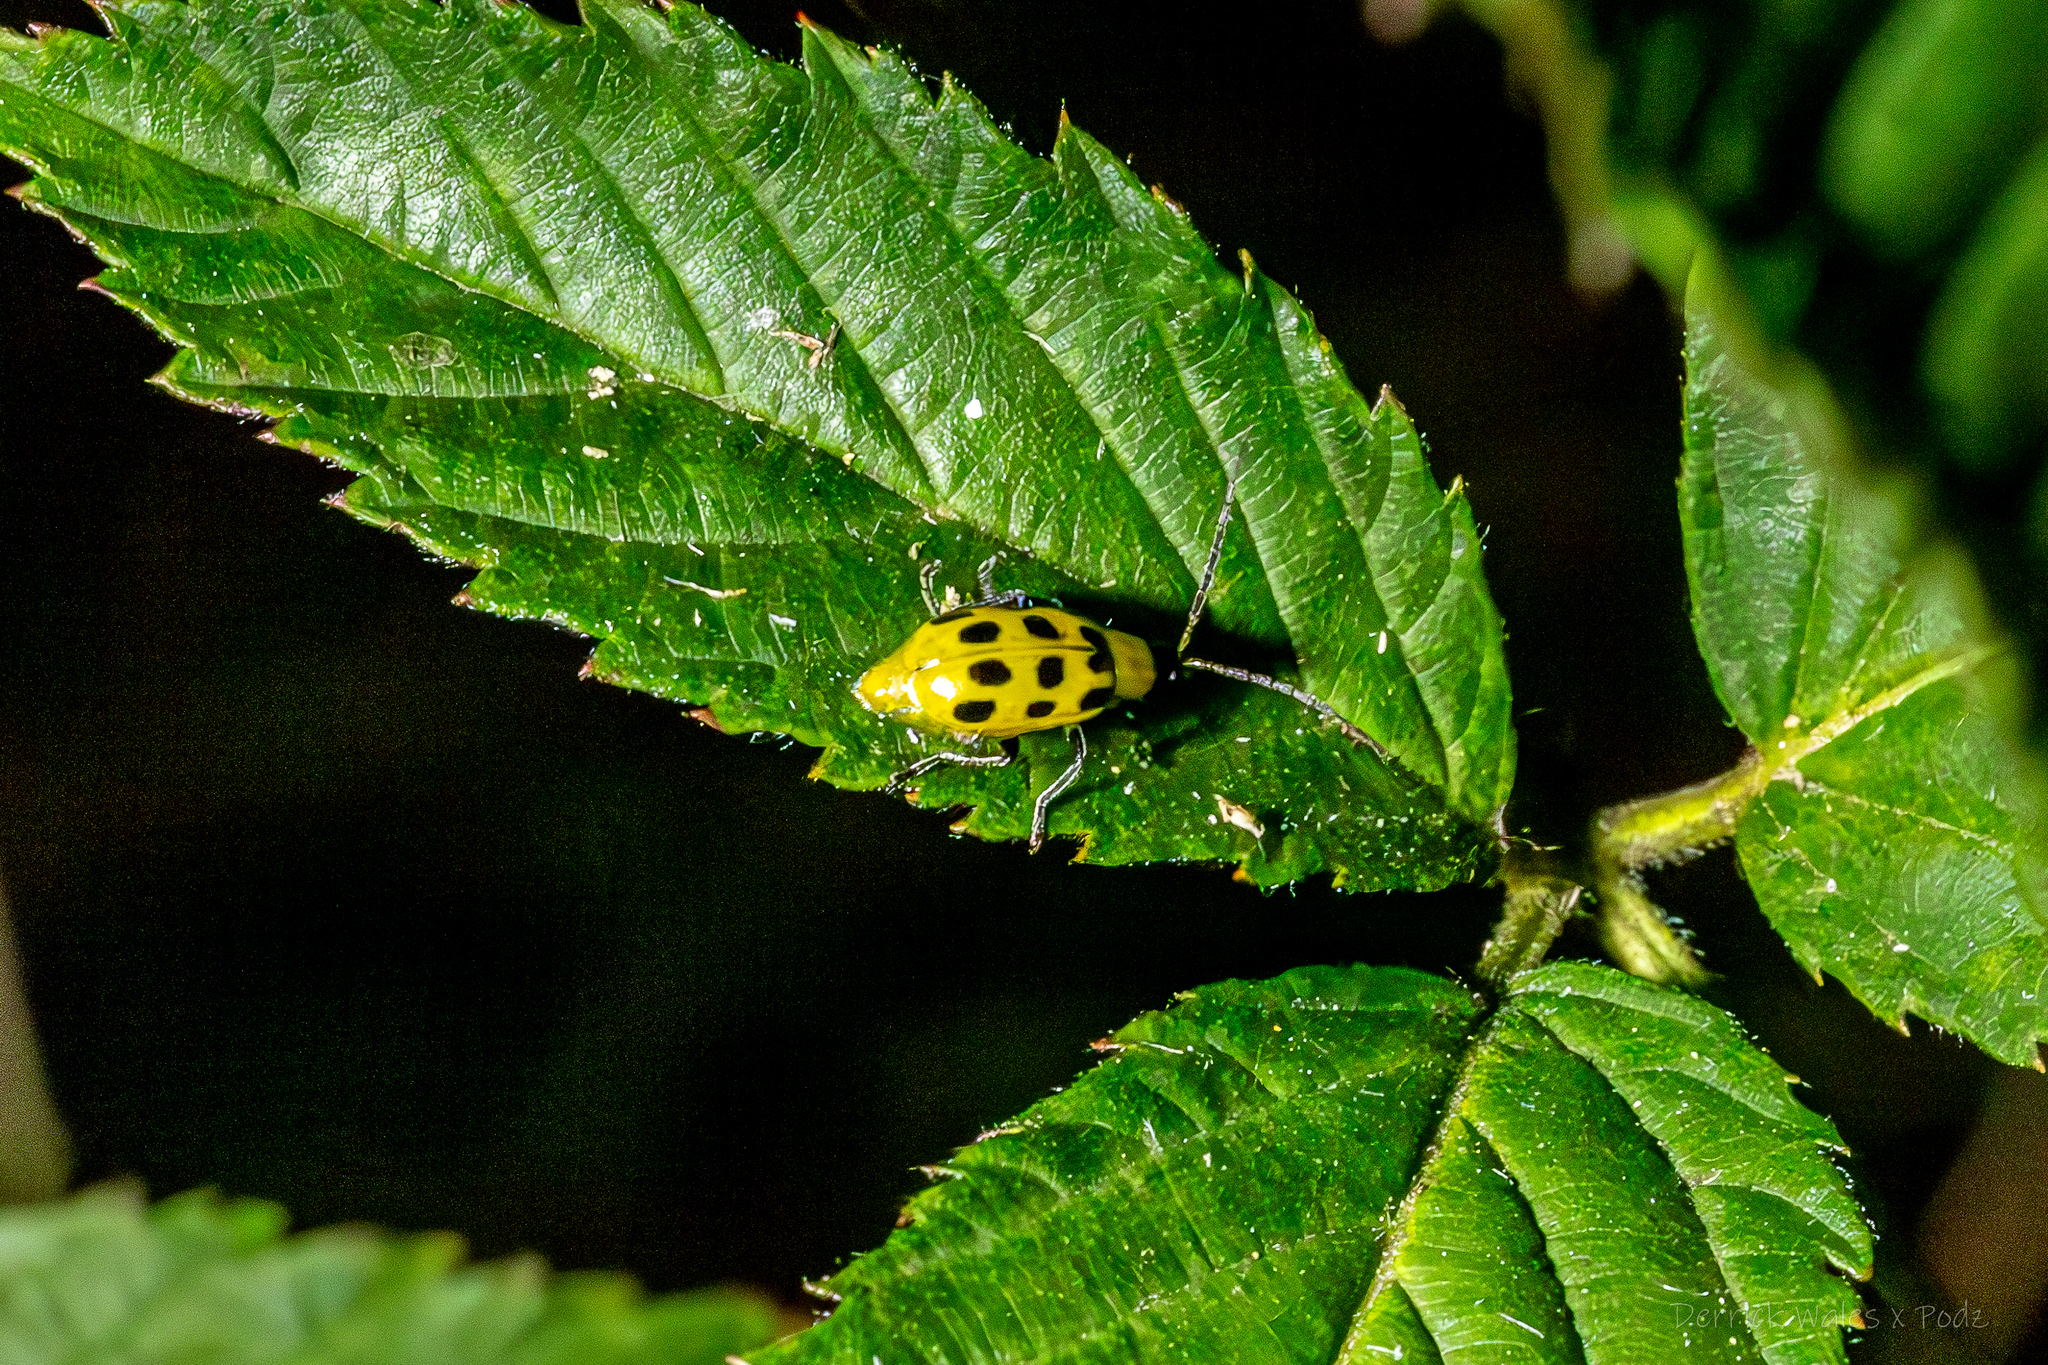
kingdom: Animalia
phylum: Arthropoda
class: Insecta
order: Coleoptera
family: Chrysomelidae
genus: Diabrotica
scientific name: Diabrotica undecimpunctata
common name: Spotted cucumber beetle
